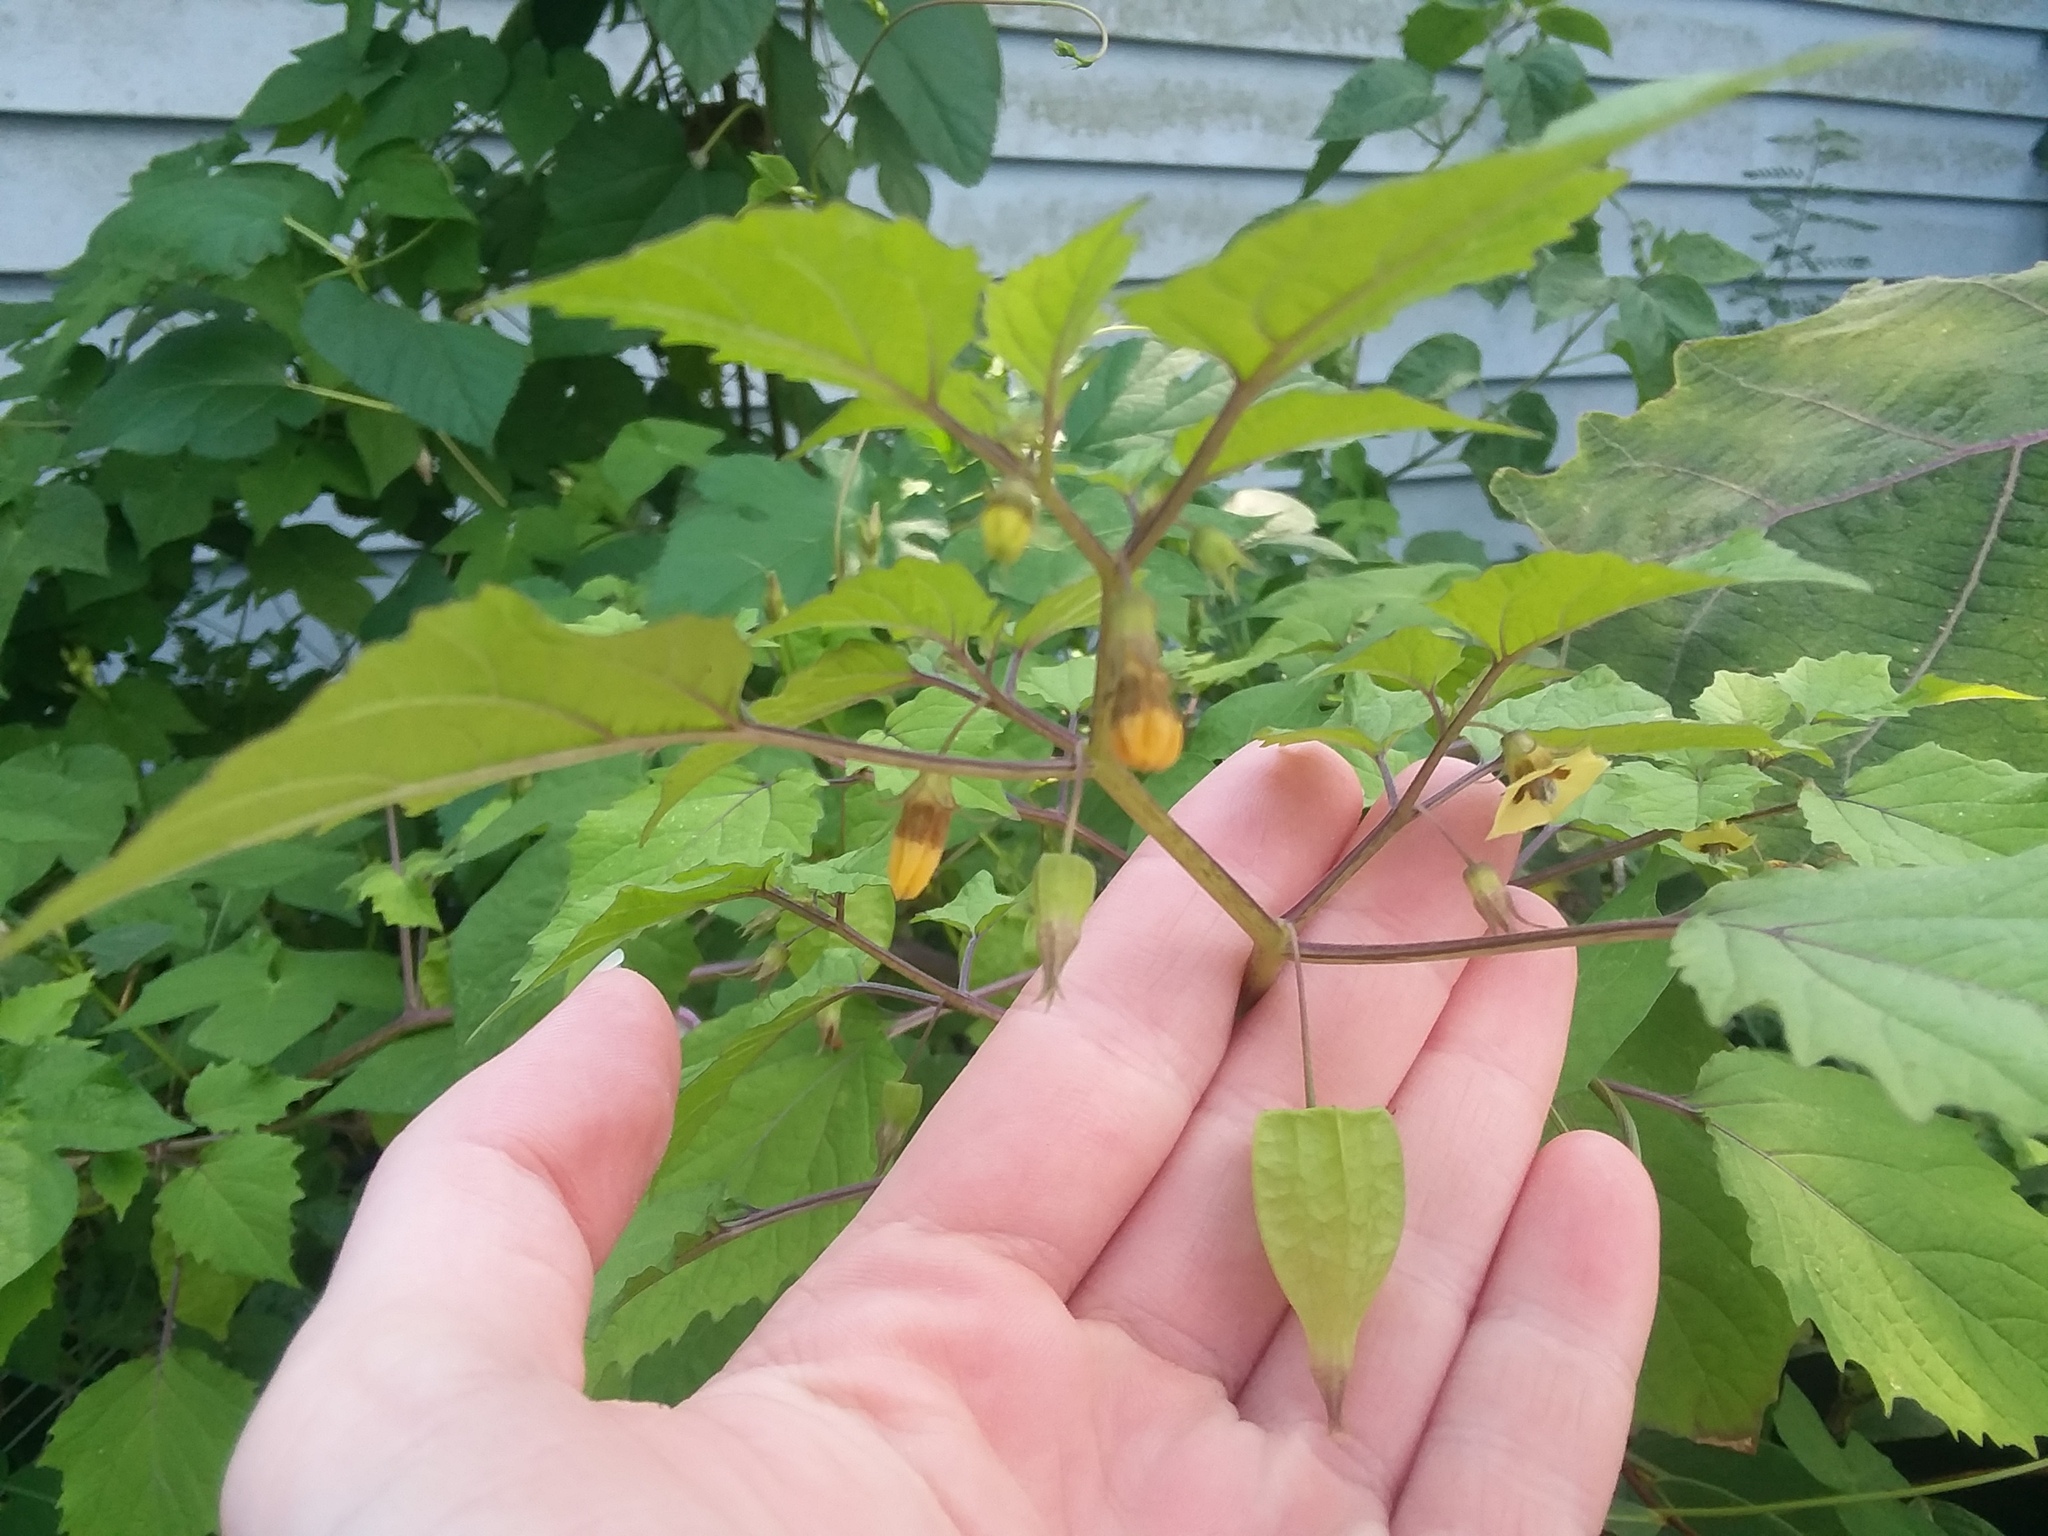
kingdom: Plantae
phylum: Tracheophyta
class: Magnoliopsida
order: Solanales
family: Solanaceae
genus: Physalis
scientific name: Physalis cordata
